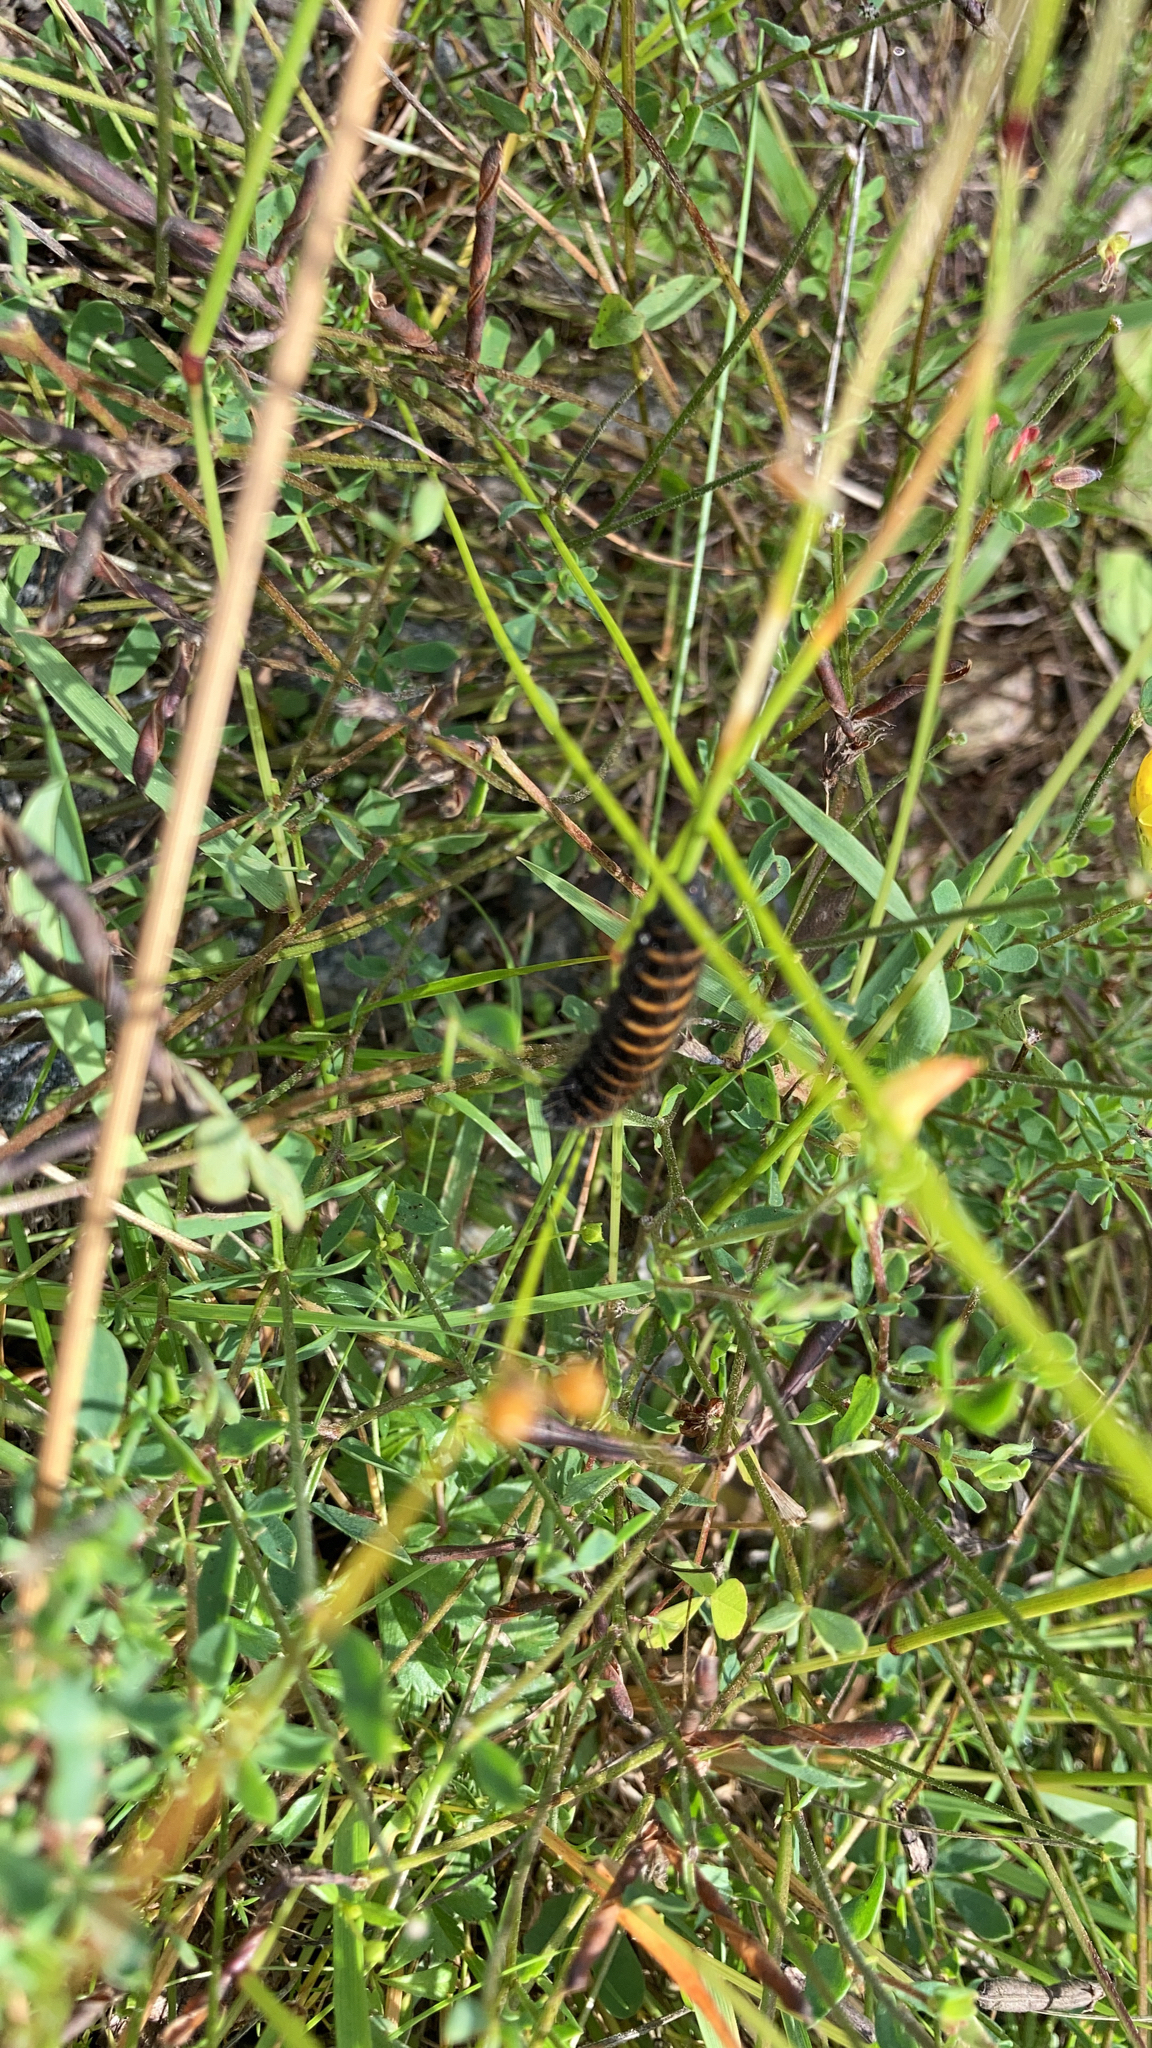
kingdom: Animalia
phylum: Arthropoda
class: Insecta
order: Lepidoptera
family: Erebidae
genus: Tyria
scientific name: Tyria jacobaeae
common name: Cinnabar
